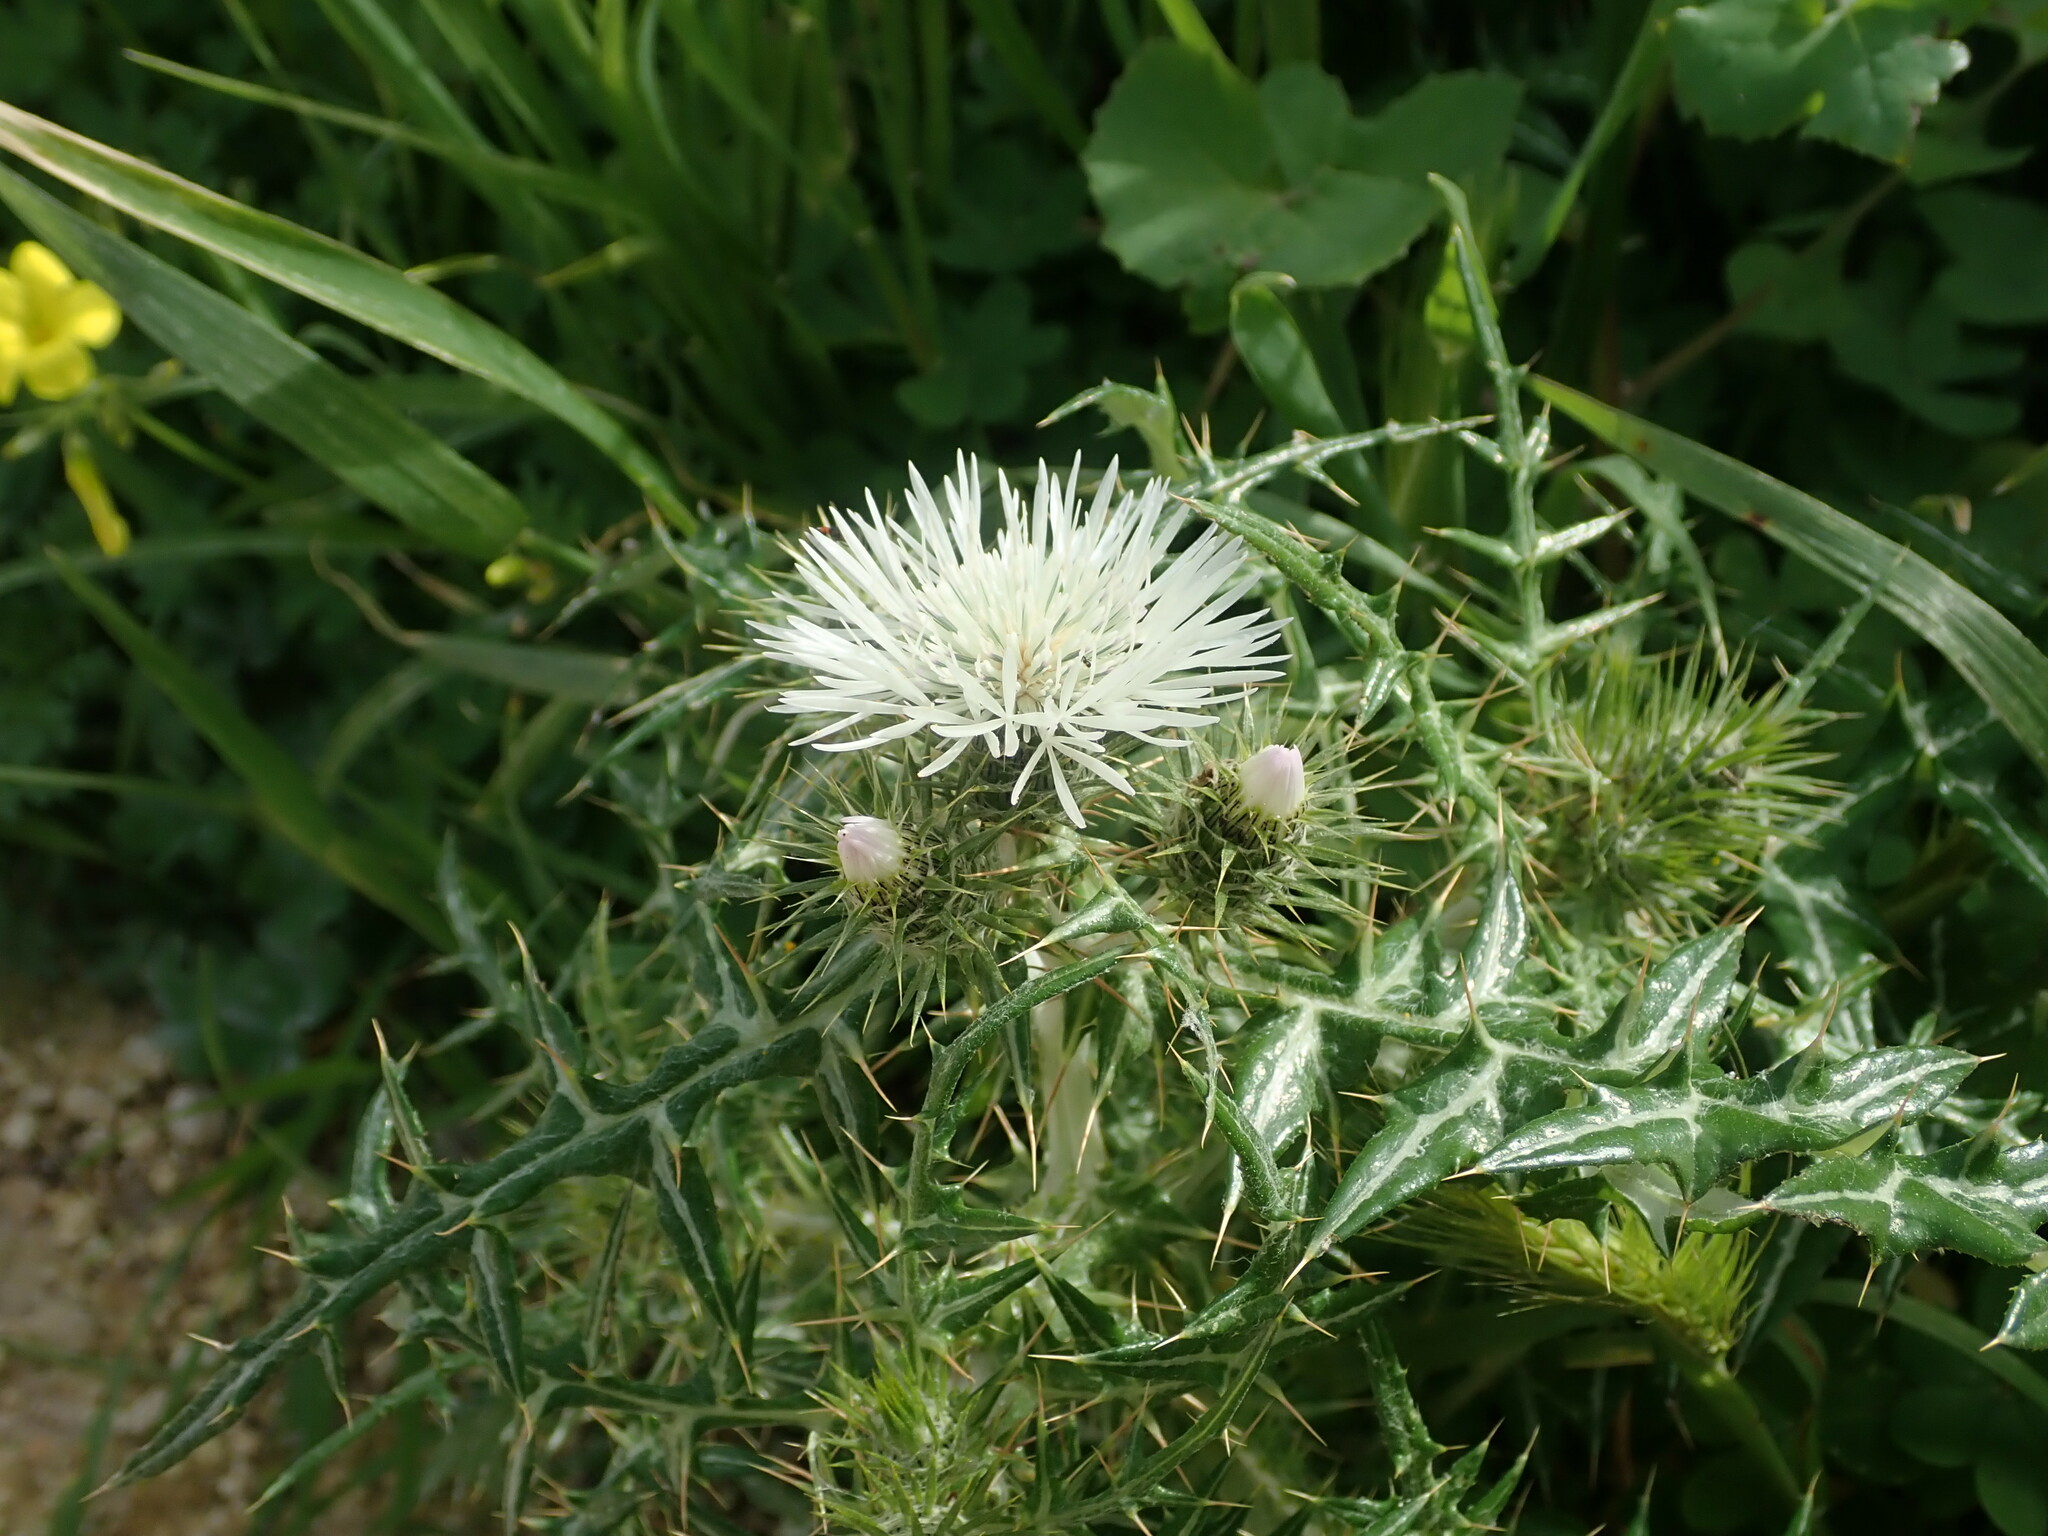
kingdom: Plantae
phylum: Tracheophyta
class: Magnoliopsida
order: Asterales
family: Asteraceae
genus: Galactites
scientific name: Galactites tomentosa
